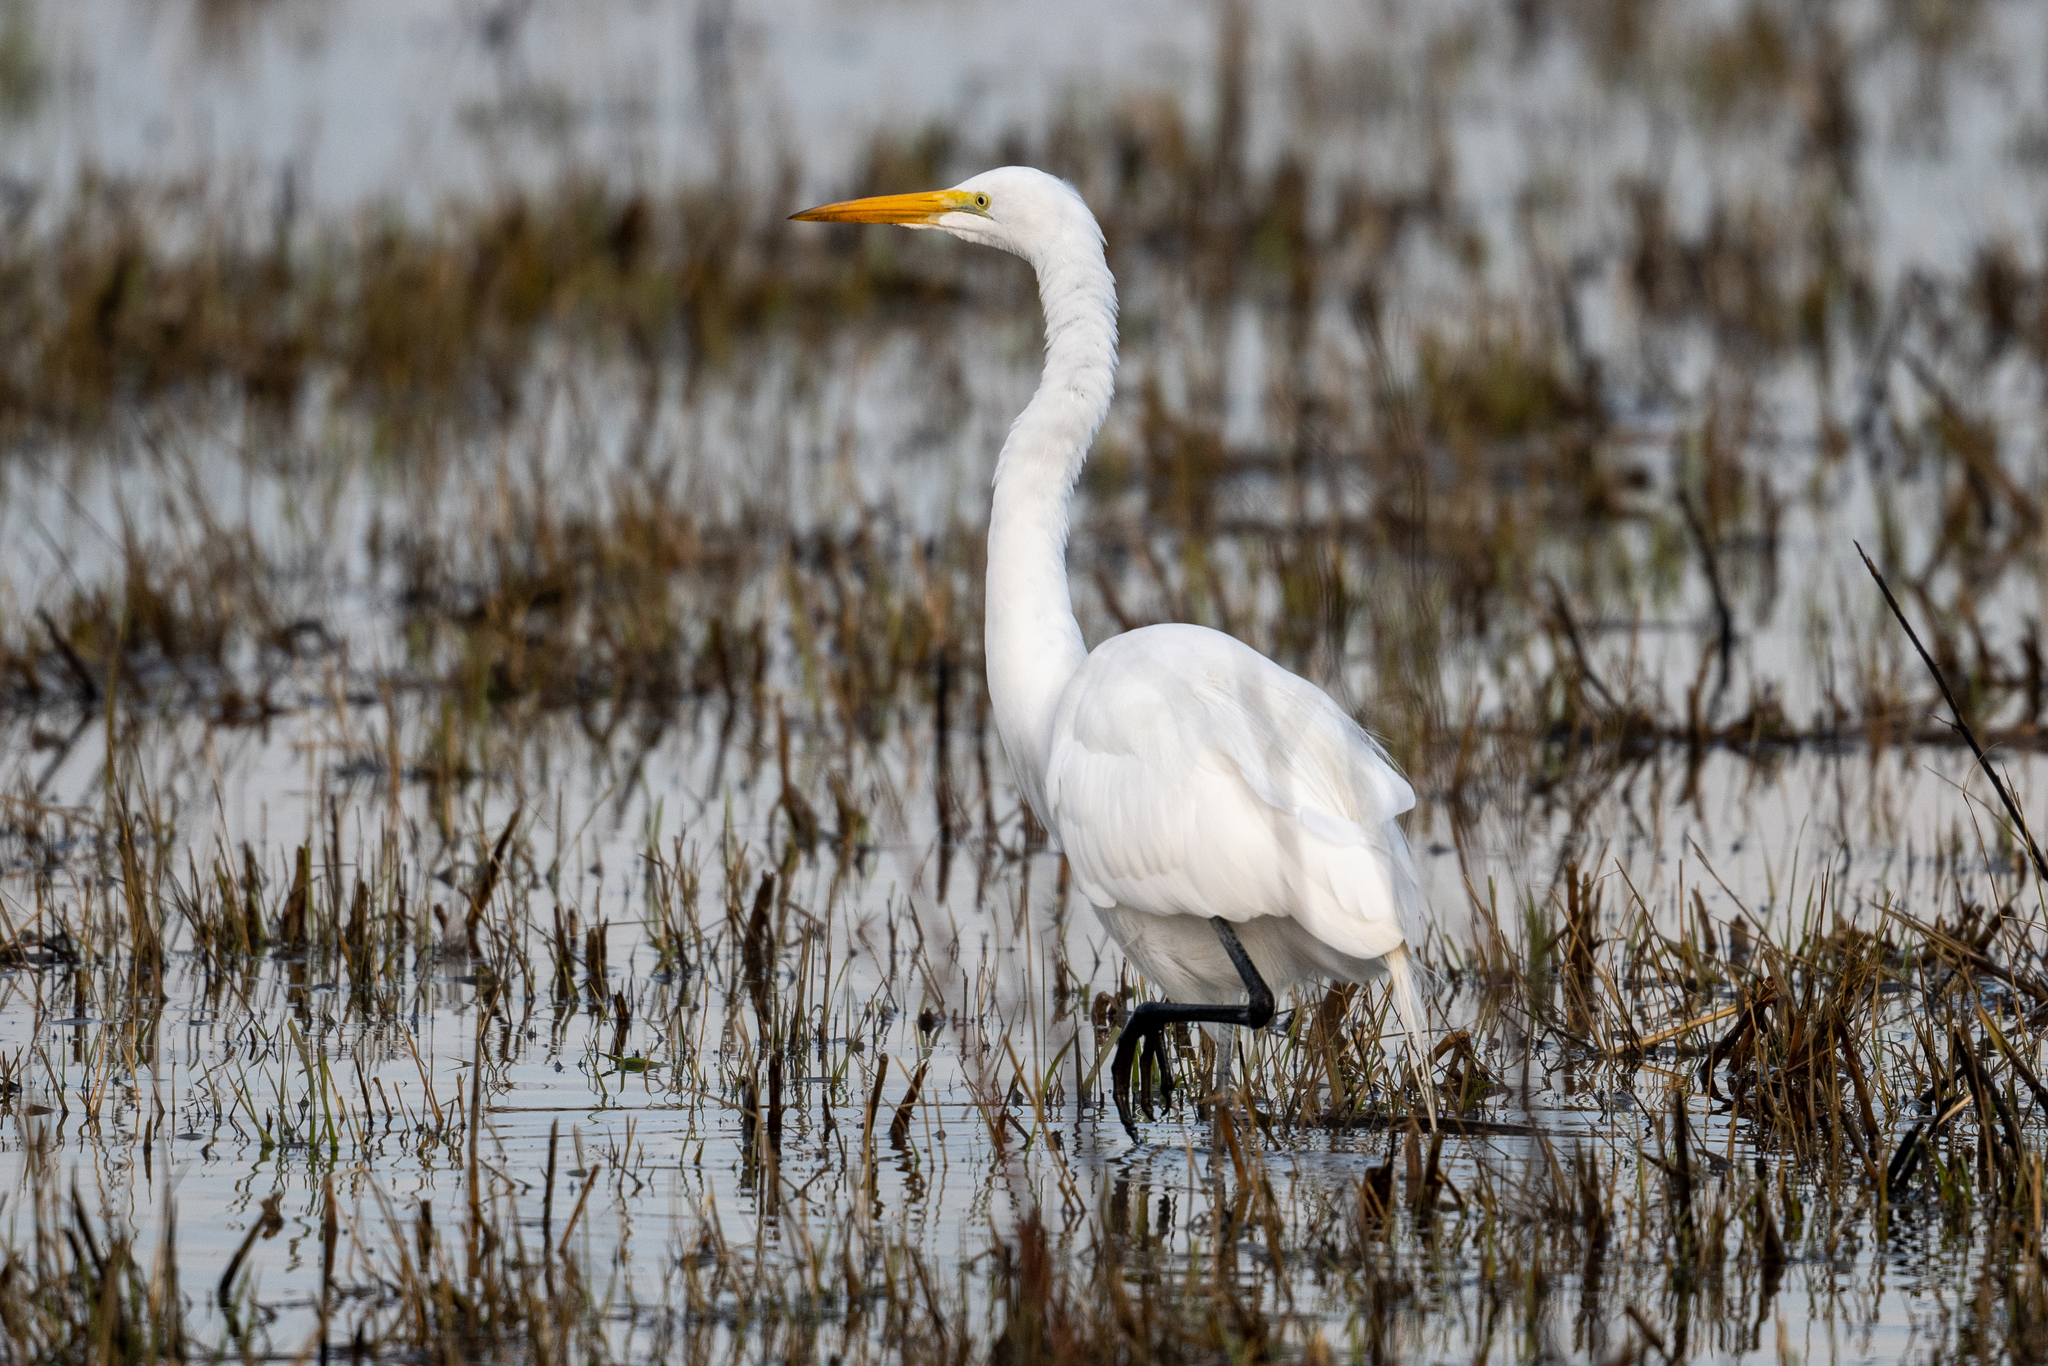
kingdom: Animalia
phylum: Chordata
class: Aves
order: Pelecaniformes
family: Ardeidae
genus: Ardea
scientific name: Ardea alba
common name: Great egret
